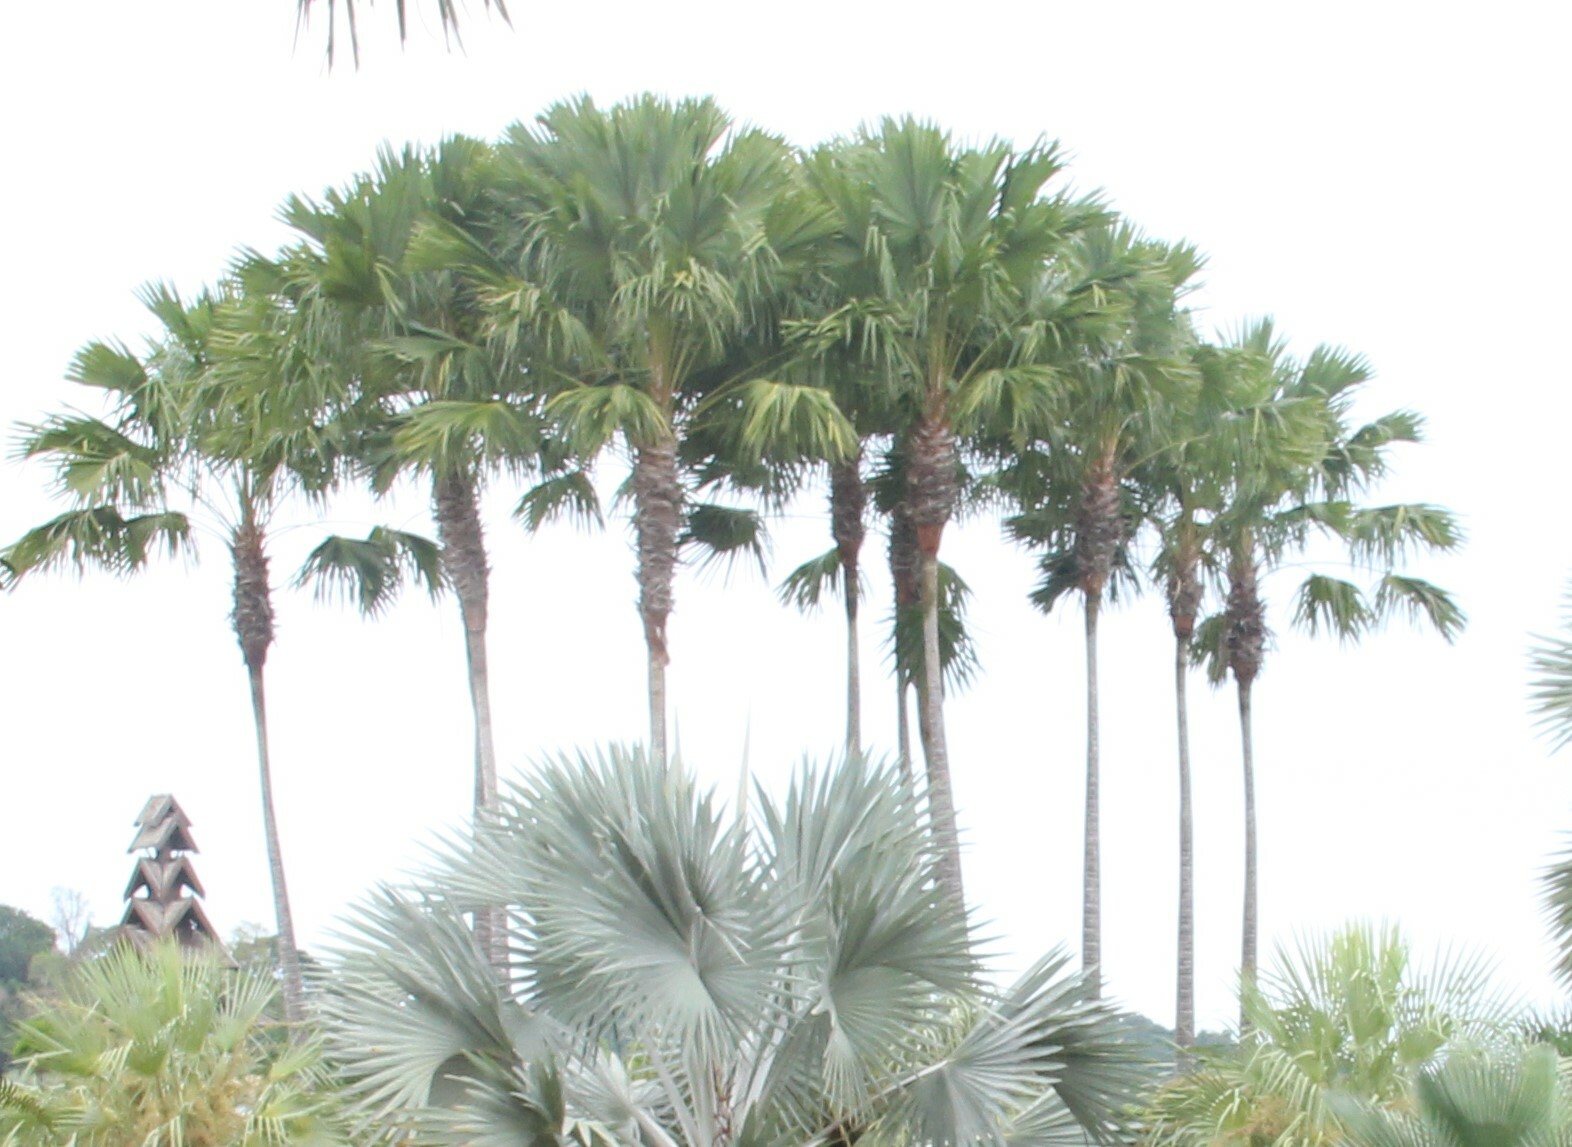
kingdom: Plantae
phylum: Tracheophyta
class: Liliopsida
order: Arecales
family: Arecaceae
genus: Borassus
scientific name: Borassus flabellifer
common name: Palmyra palm
